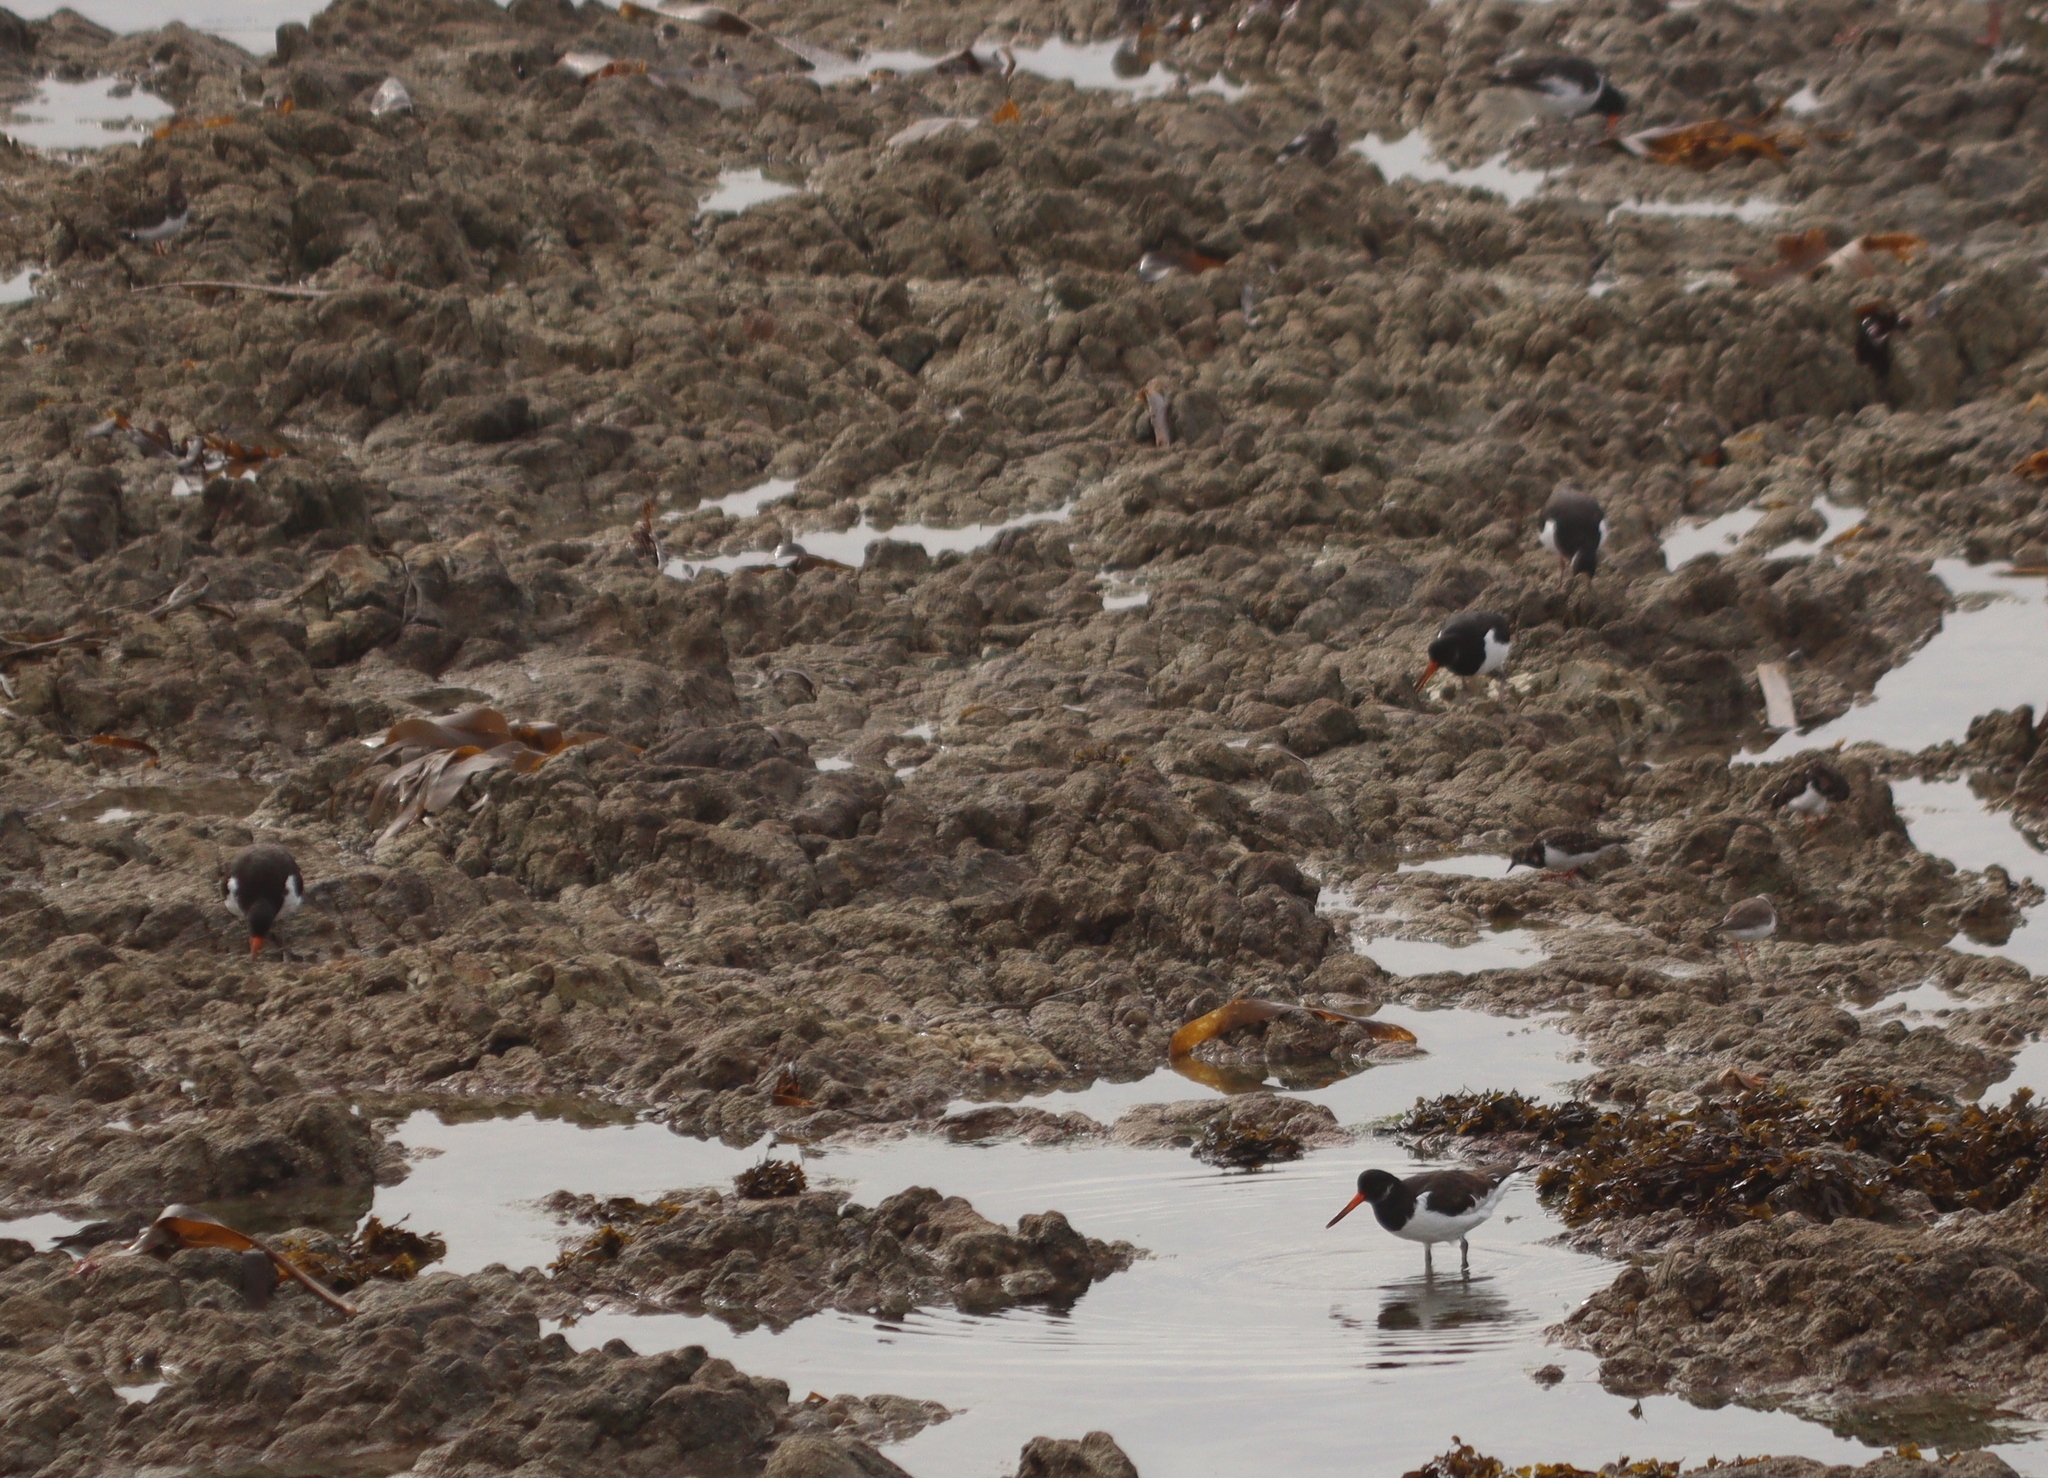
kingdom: Animalia
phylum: Chordata
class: Aves
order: Charadriiformes
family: Haematopodidae
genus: Haematopus
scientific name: Haematopus ostralegus
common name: Eurasian oystercatcher
